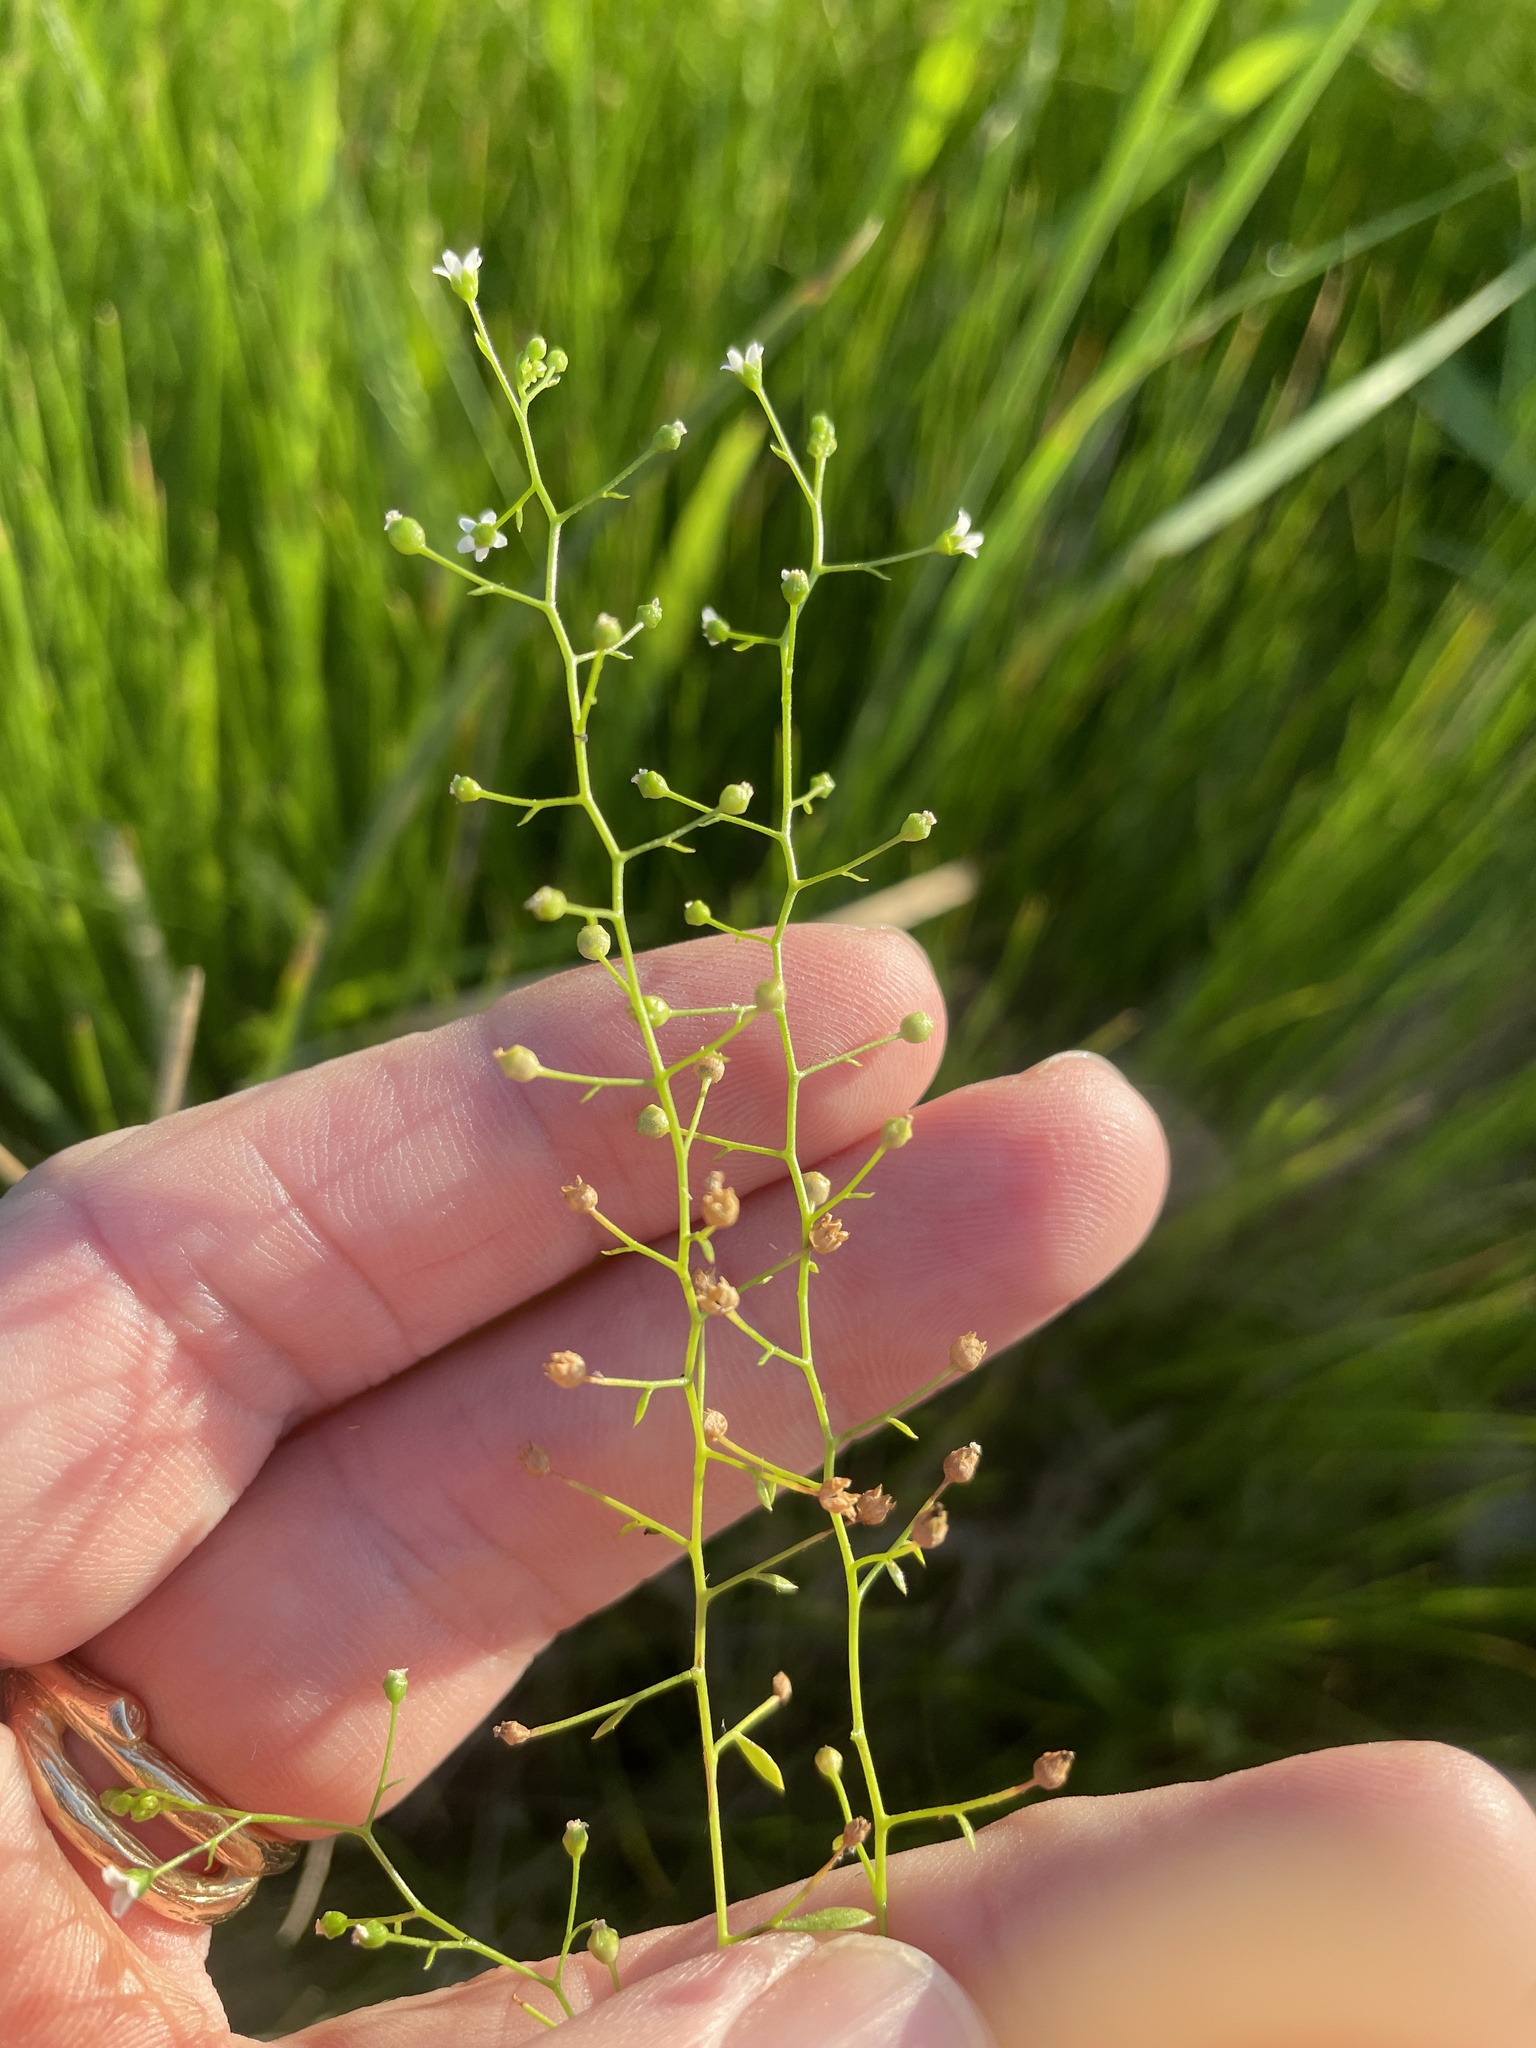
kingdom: Plantae
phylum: Tracheophyta
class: Magnoliopsida
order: Ericales
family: Primulaceae
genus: Samolus
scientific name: Samolus parviflorus
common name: False water pimpernel
